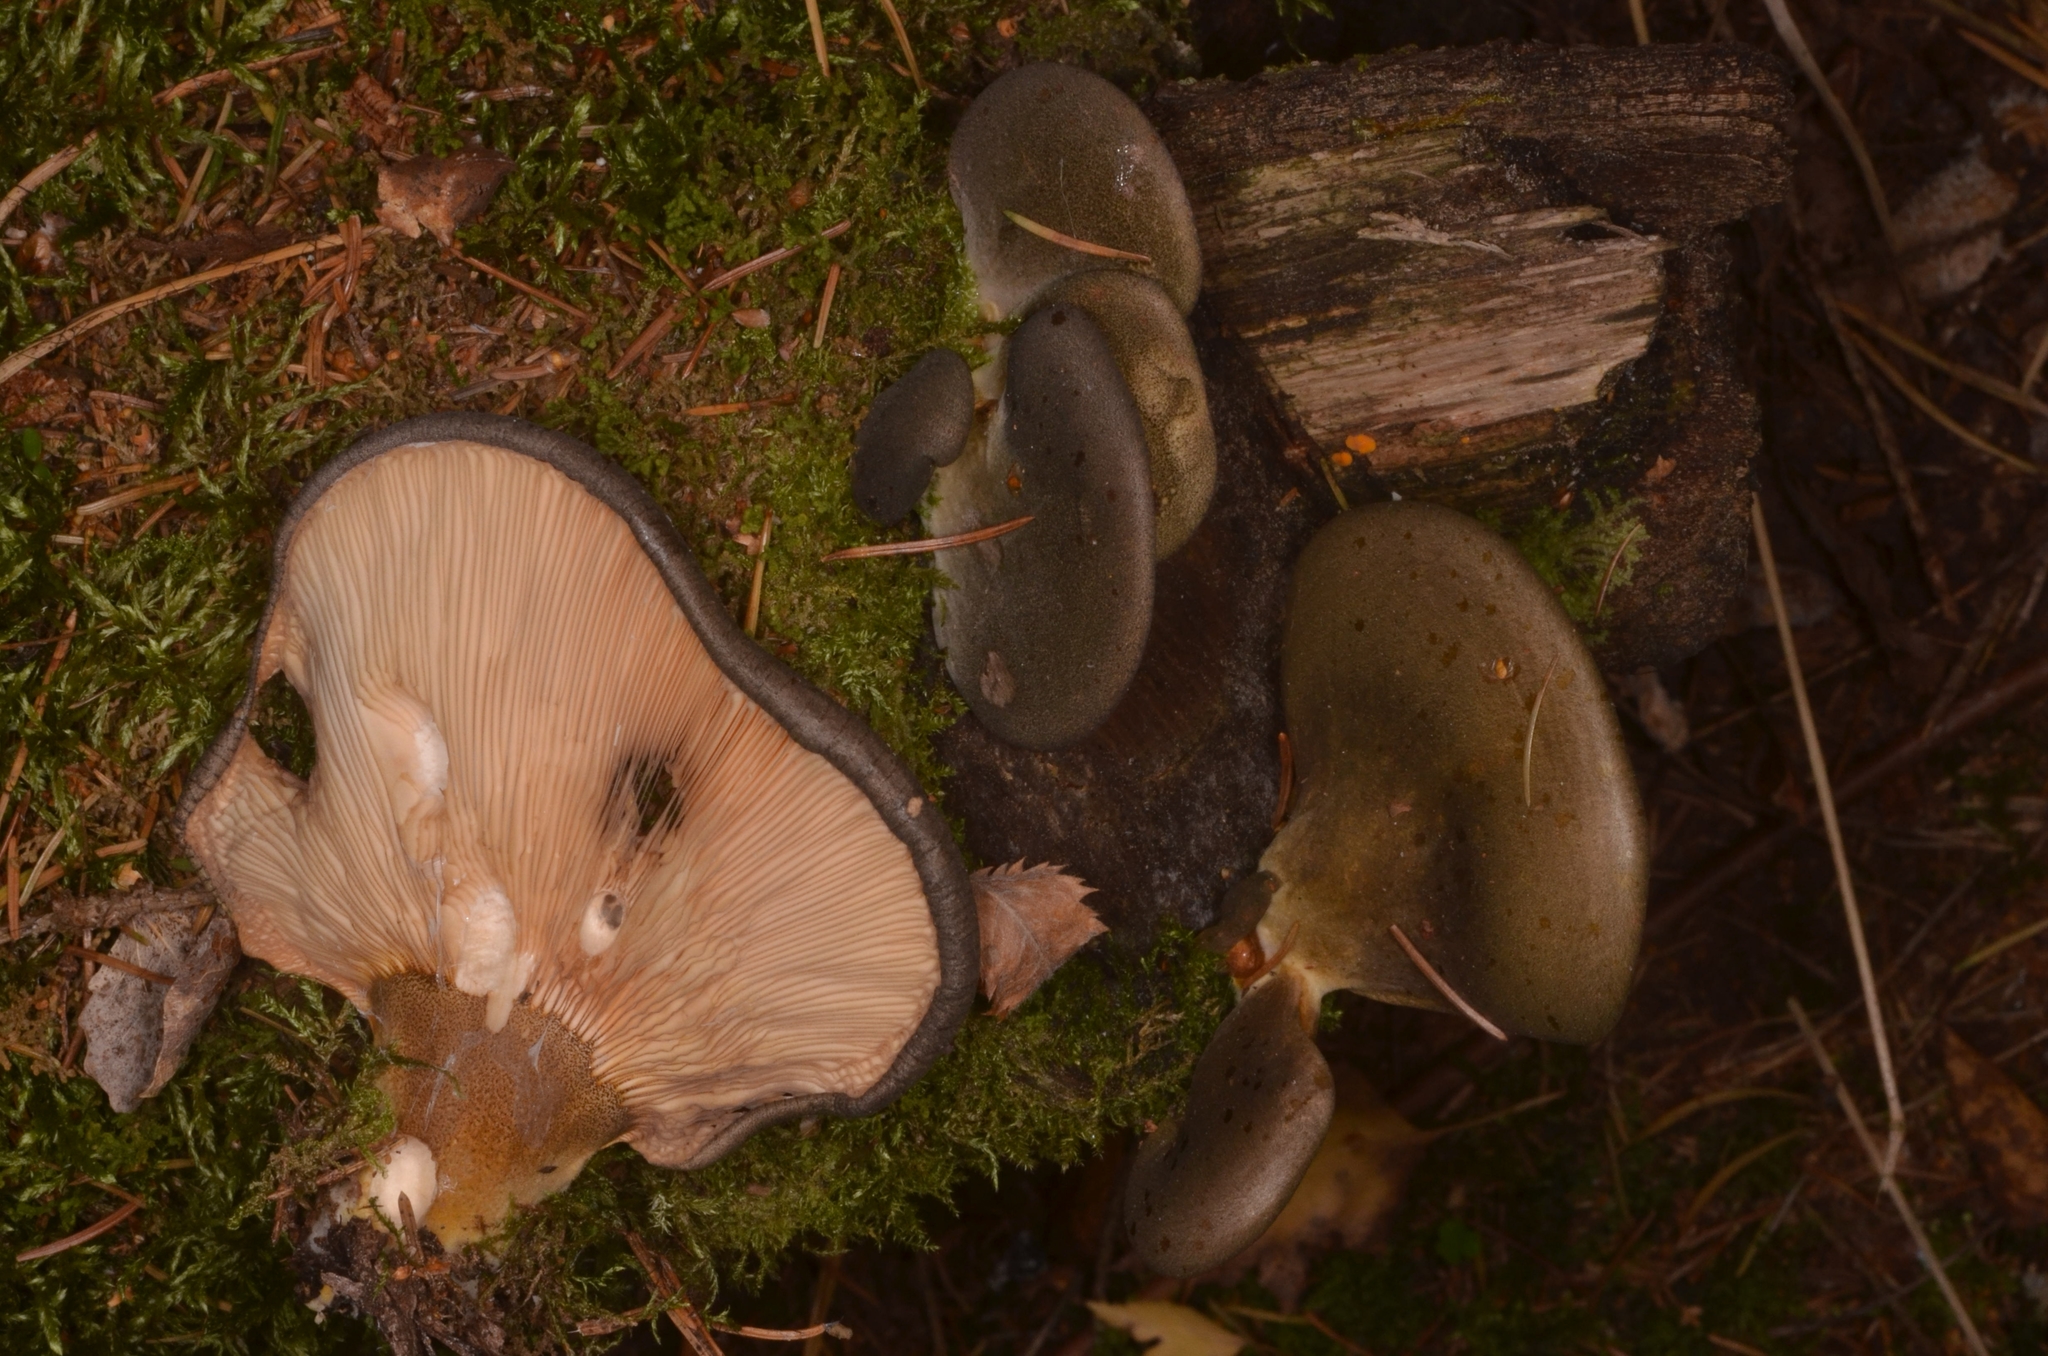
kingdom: Fungi
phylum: Basidiomycota
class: Agaricomycetes
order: Agaricales
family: Sarcomyxaceae
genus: Sarcomyxa
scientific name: Sarcomyxa serotina
